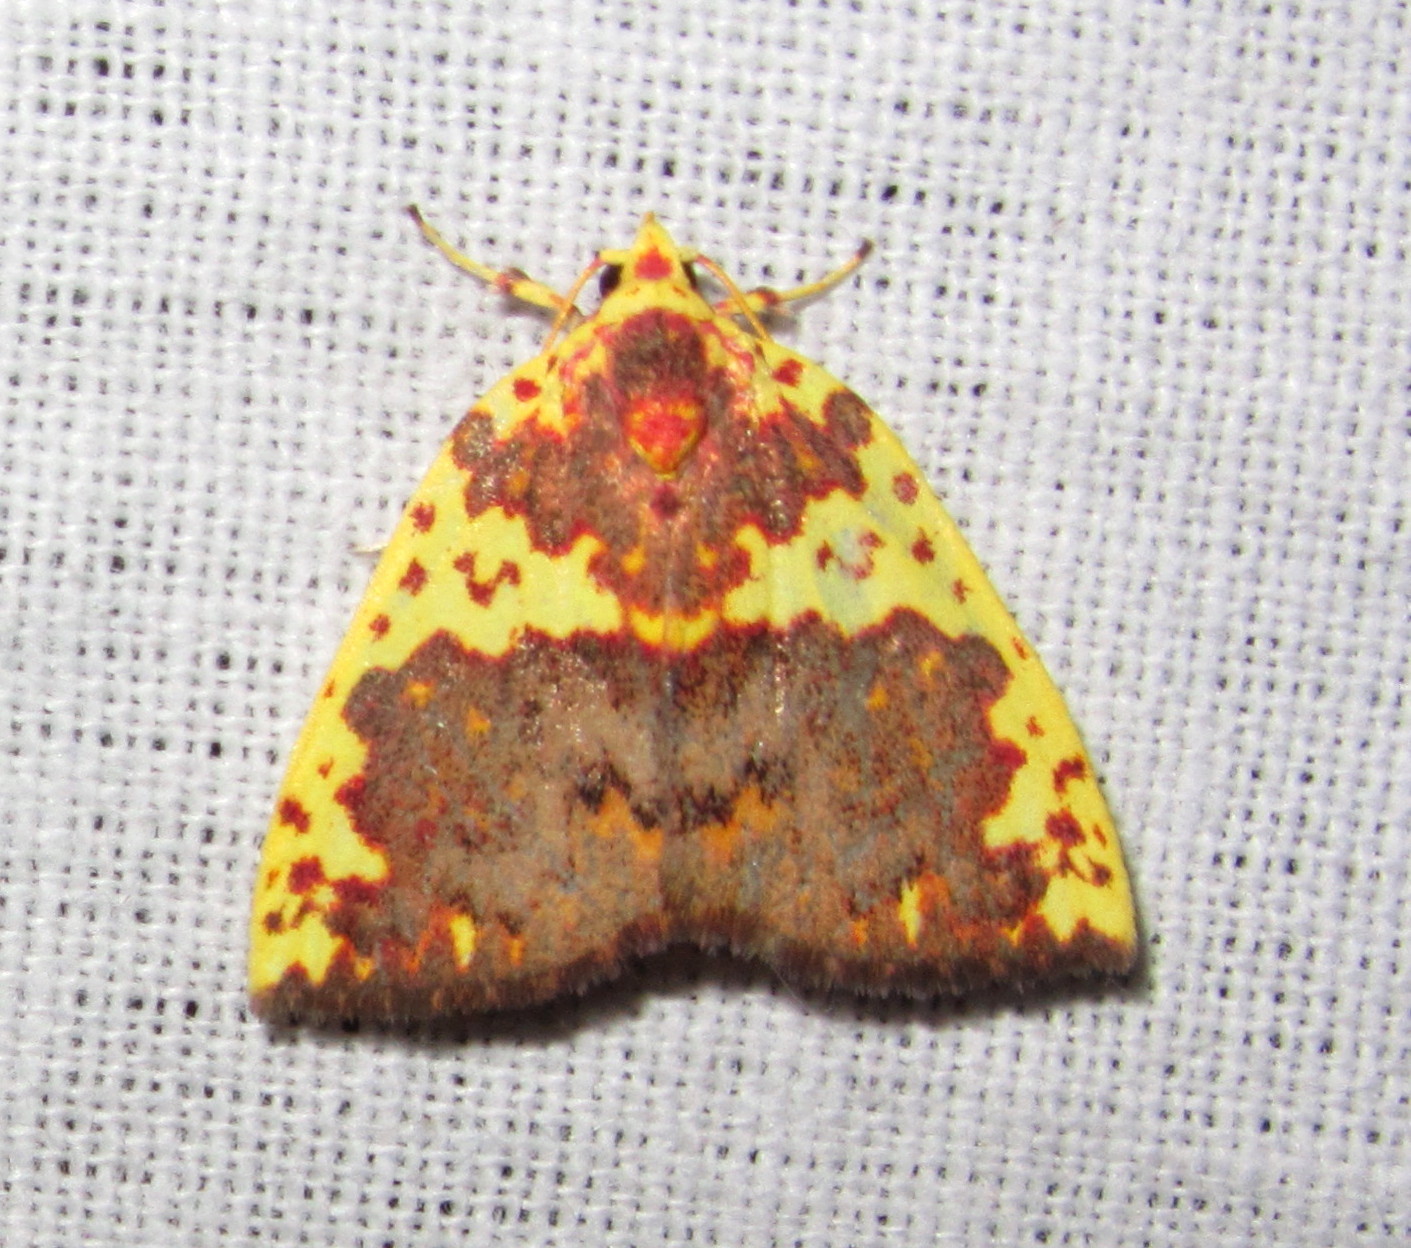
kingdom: Animalia
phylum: Arthropoda
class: Insecta
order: Lepidoptera
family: Nolidae
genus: Siglophora
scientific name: Siglophora sanguinolenta
